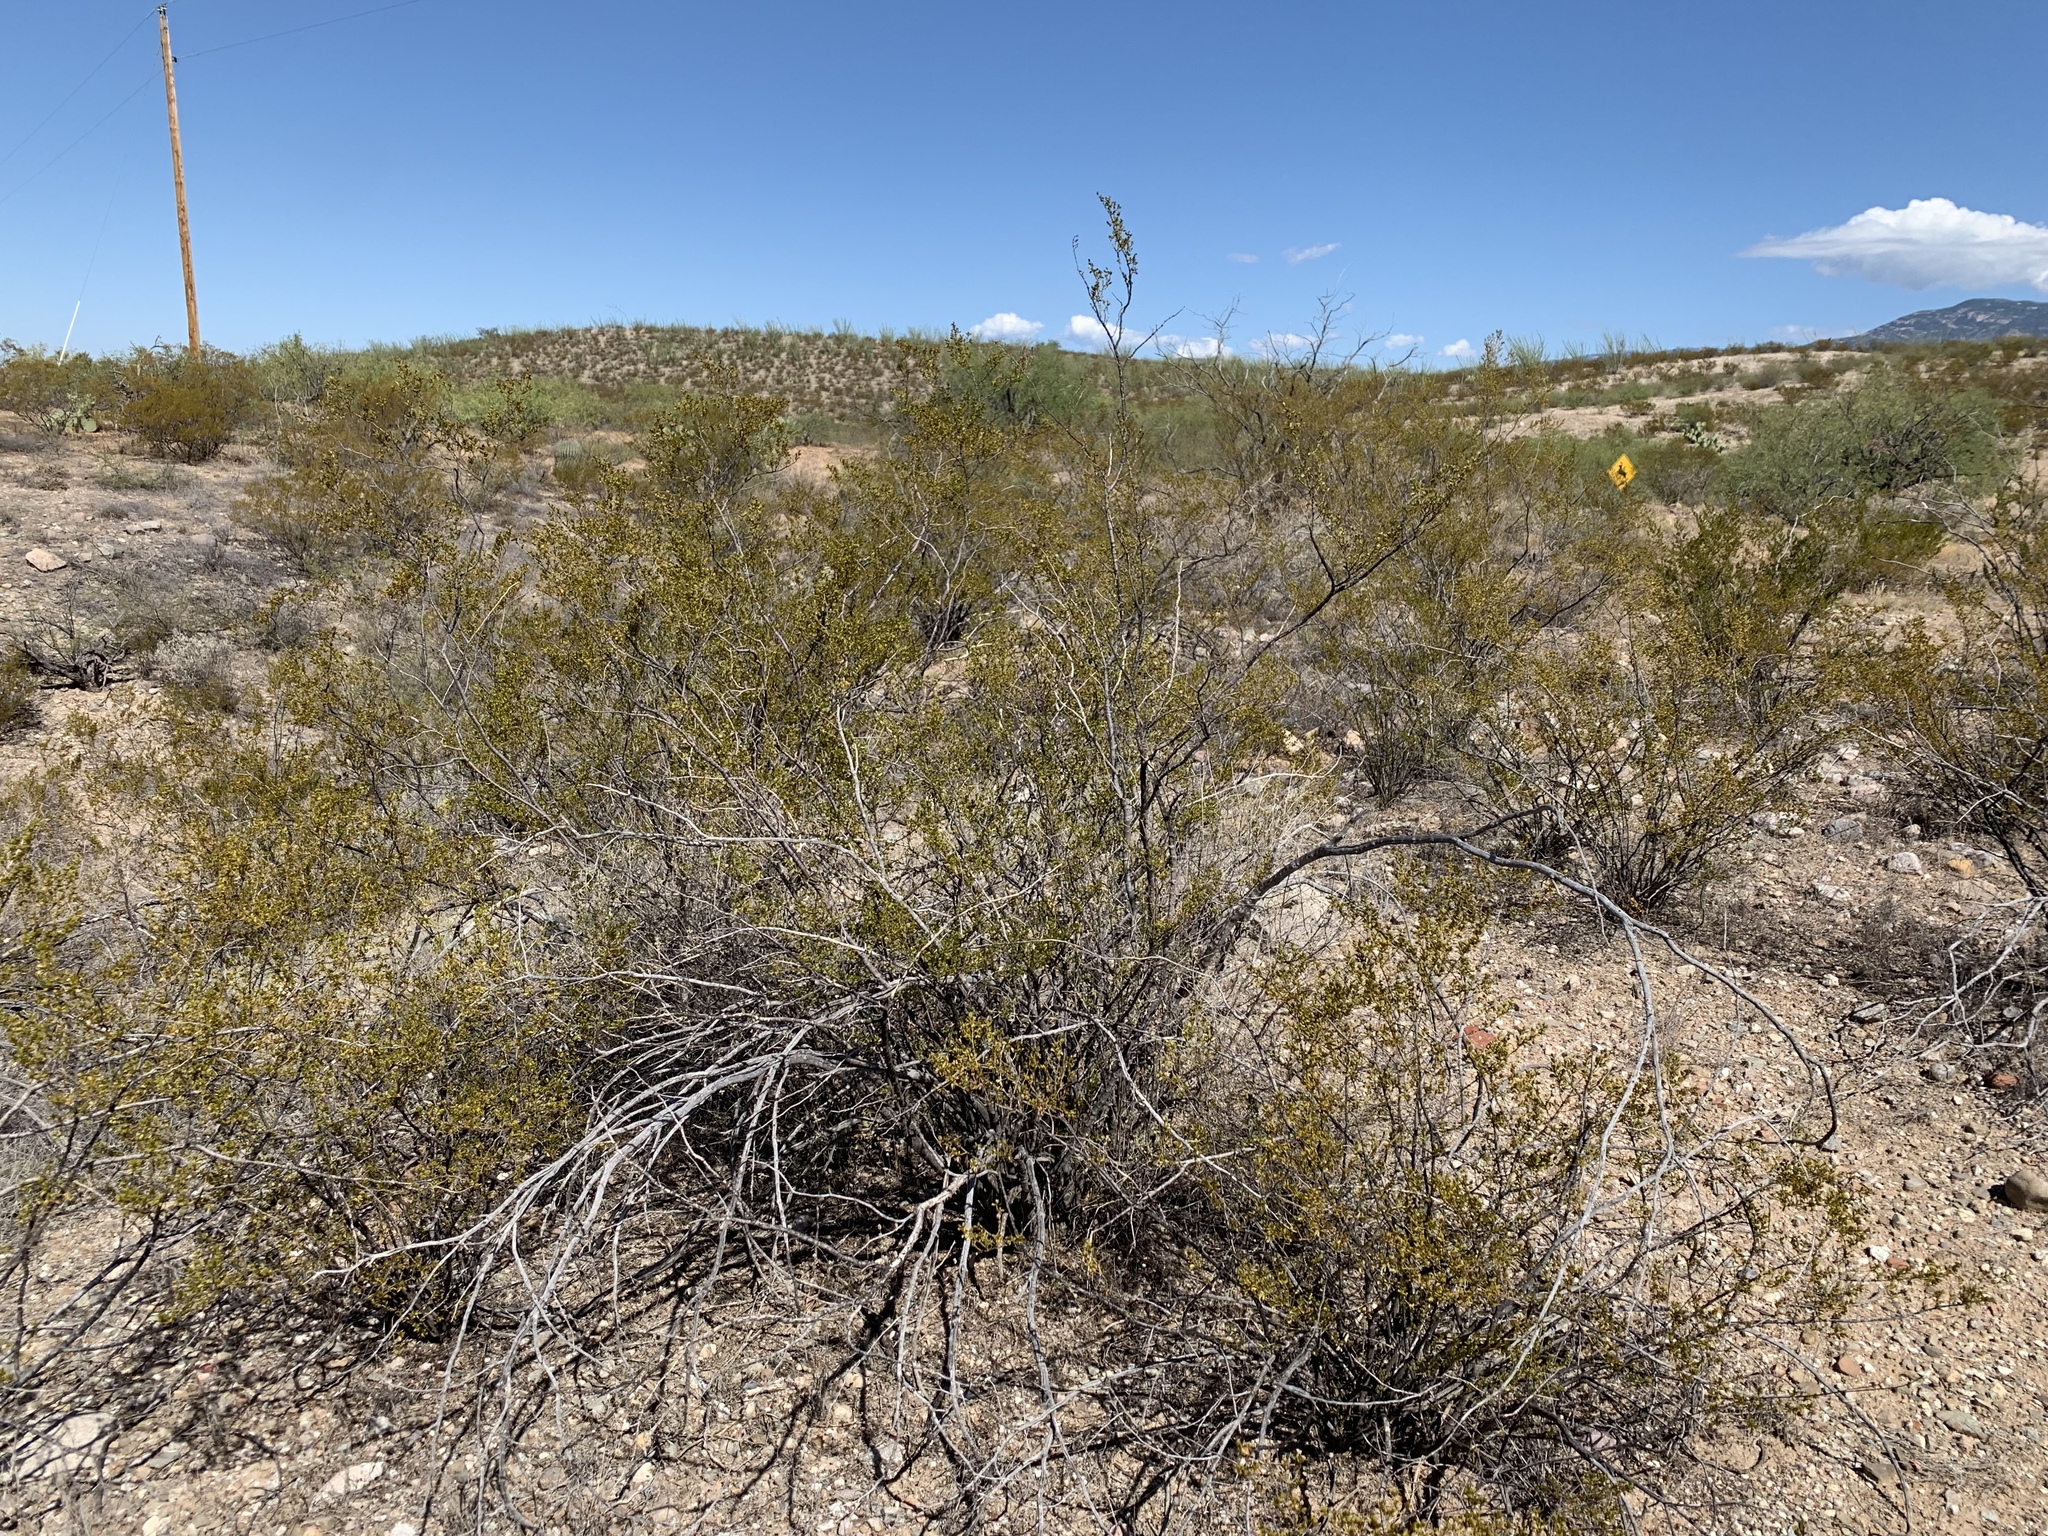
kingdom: Plantae
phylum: Tracheophyta
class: Magnoliopsida
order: Zygophyllales
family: Zygophyllaceae
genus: Larrea
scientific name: Larrea tridentata
